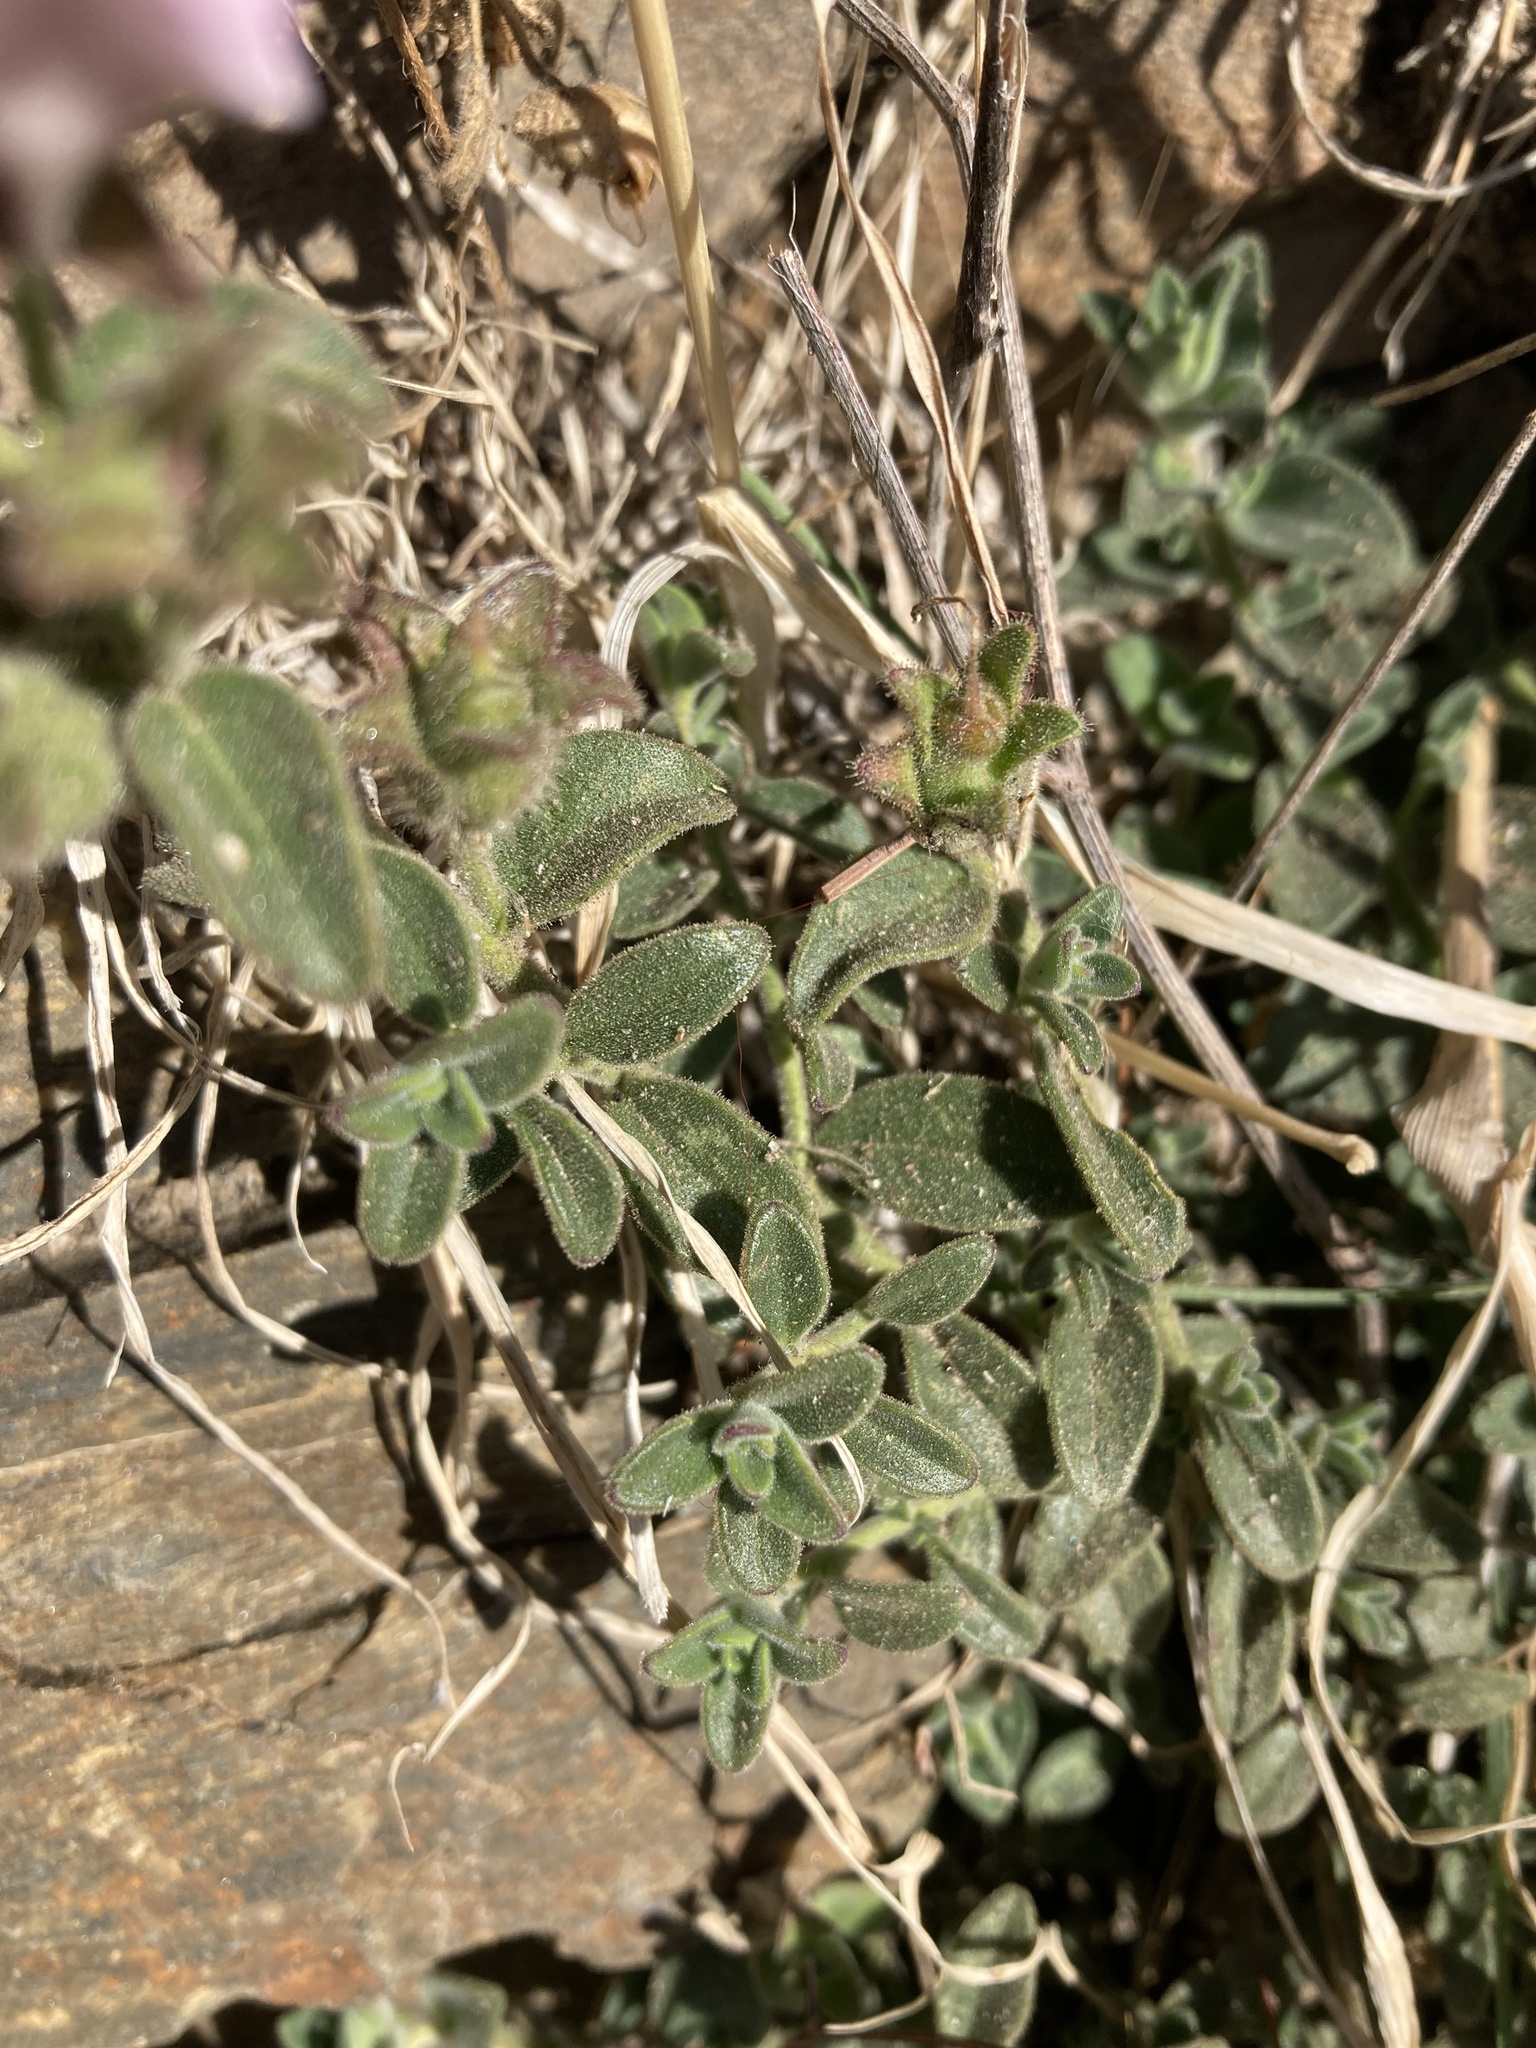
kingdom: Plantae
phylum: Tracheophyta
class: Magnoliopsida
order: Lamiales
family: Plantaginaceae
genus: Antirrhinum
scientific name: Antirrhinum hispanicum
